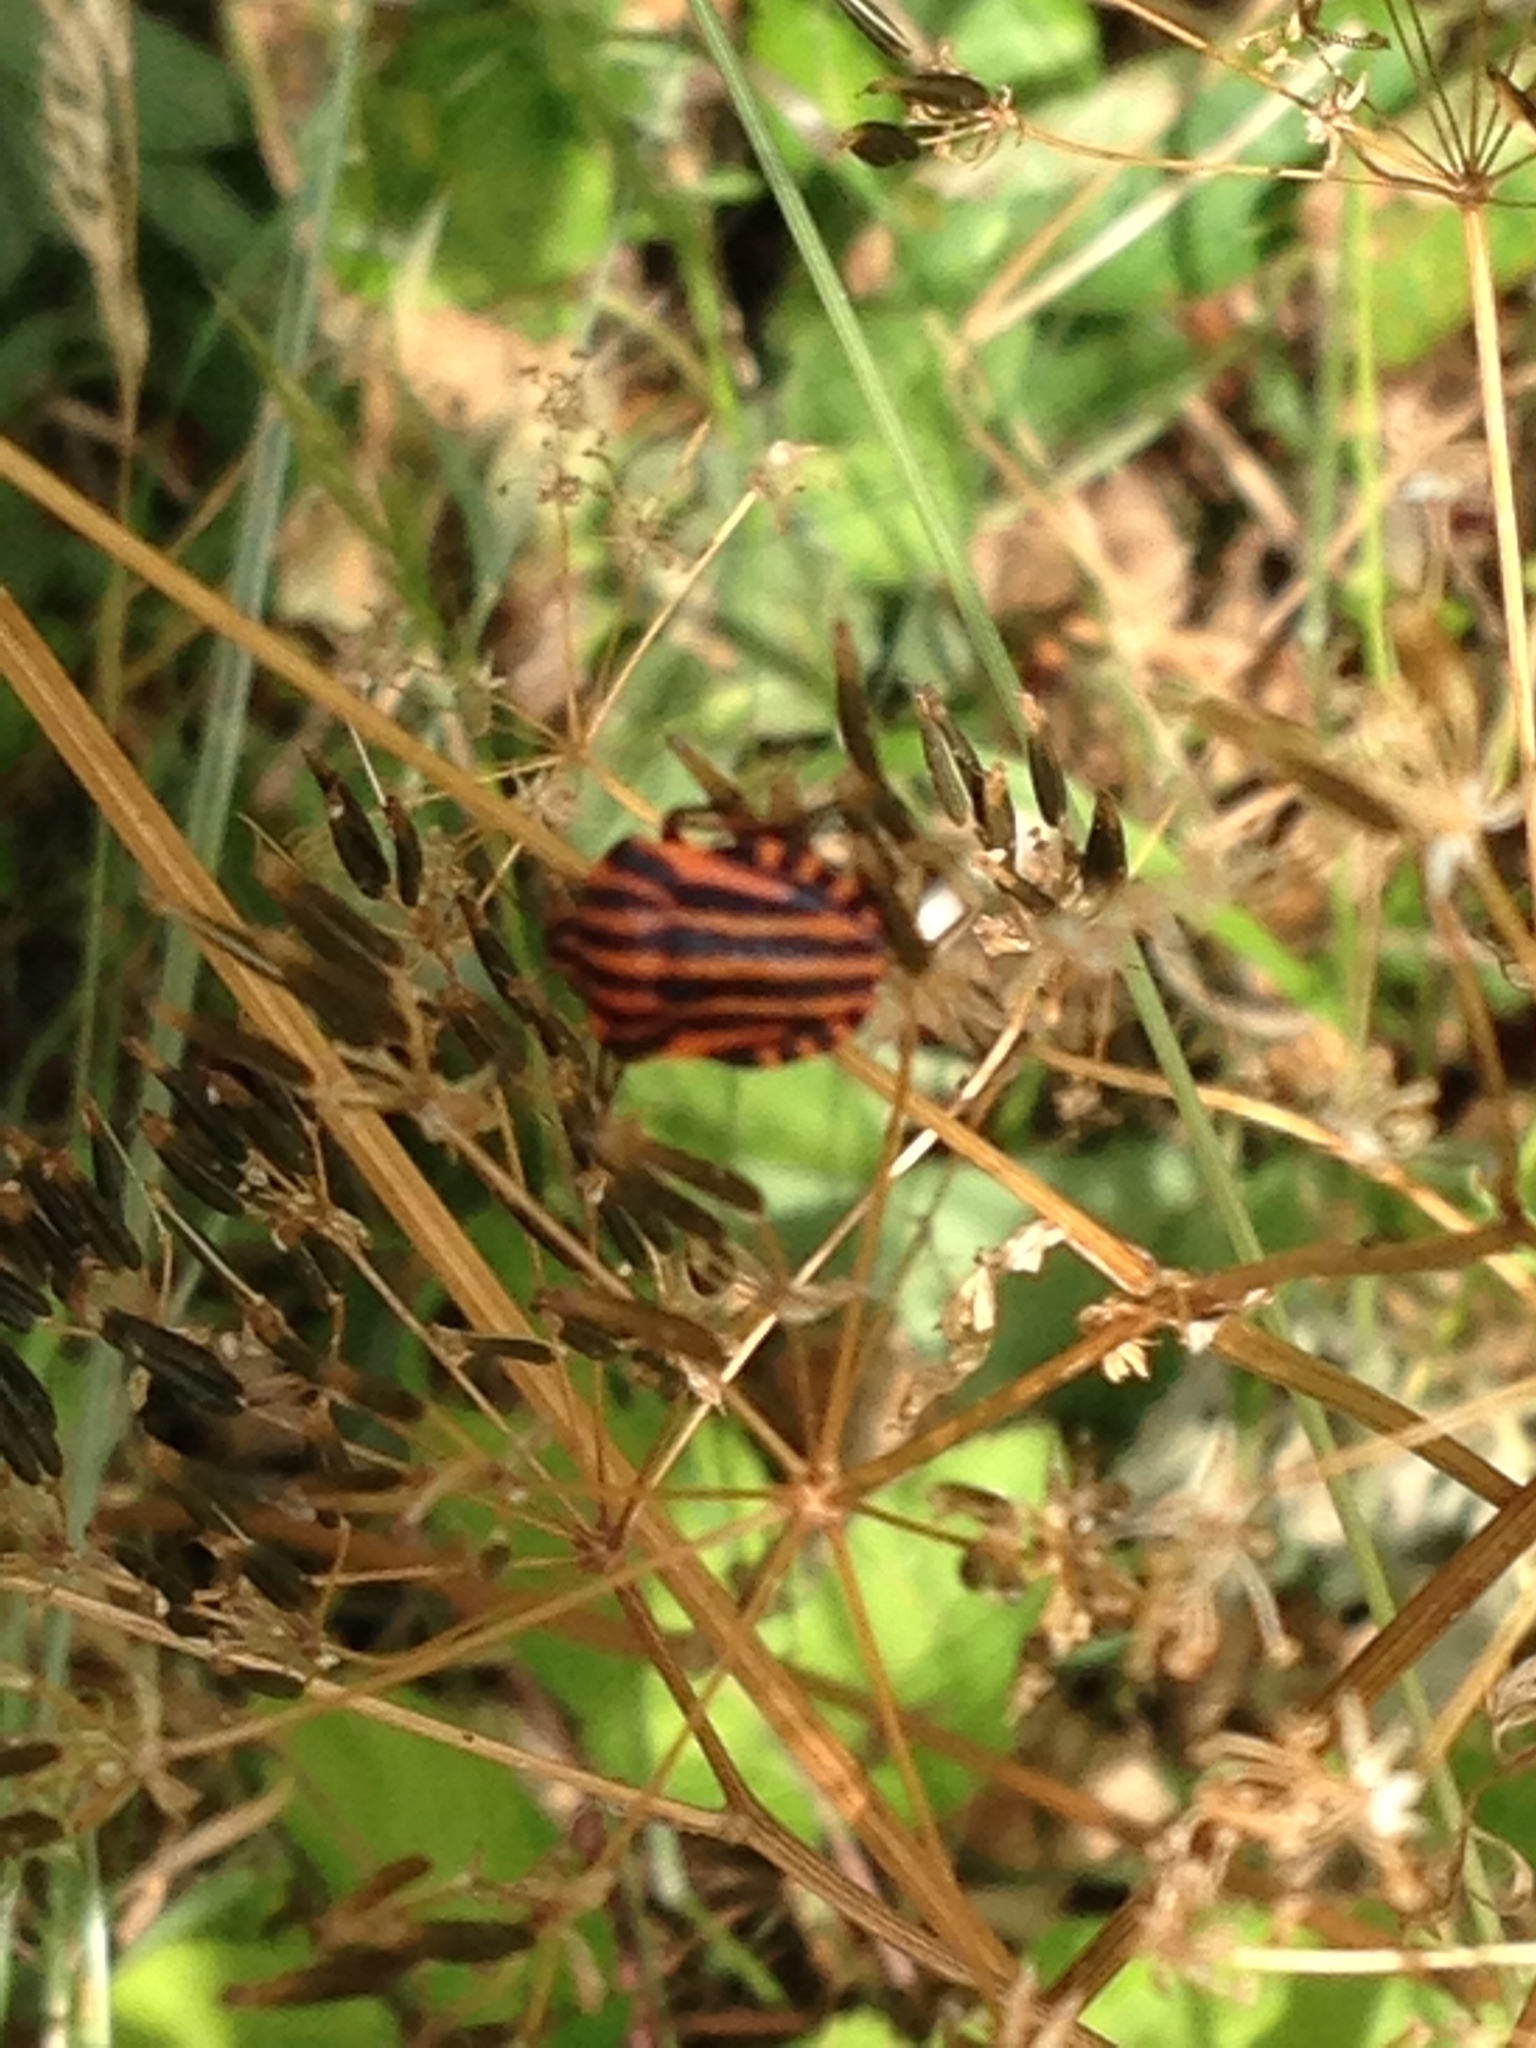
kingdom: Animalia
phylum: Arthropoda
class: Insecta
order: Hemiptera
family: Pentatomidae
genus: Graphosoma
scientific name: Graphosoma italicum
